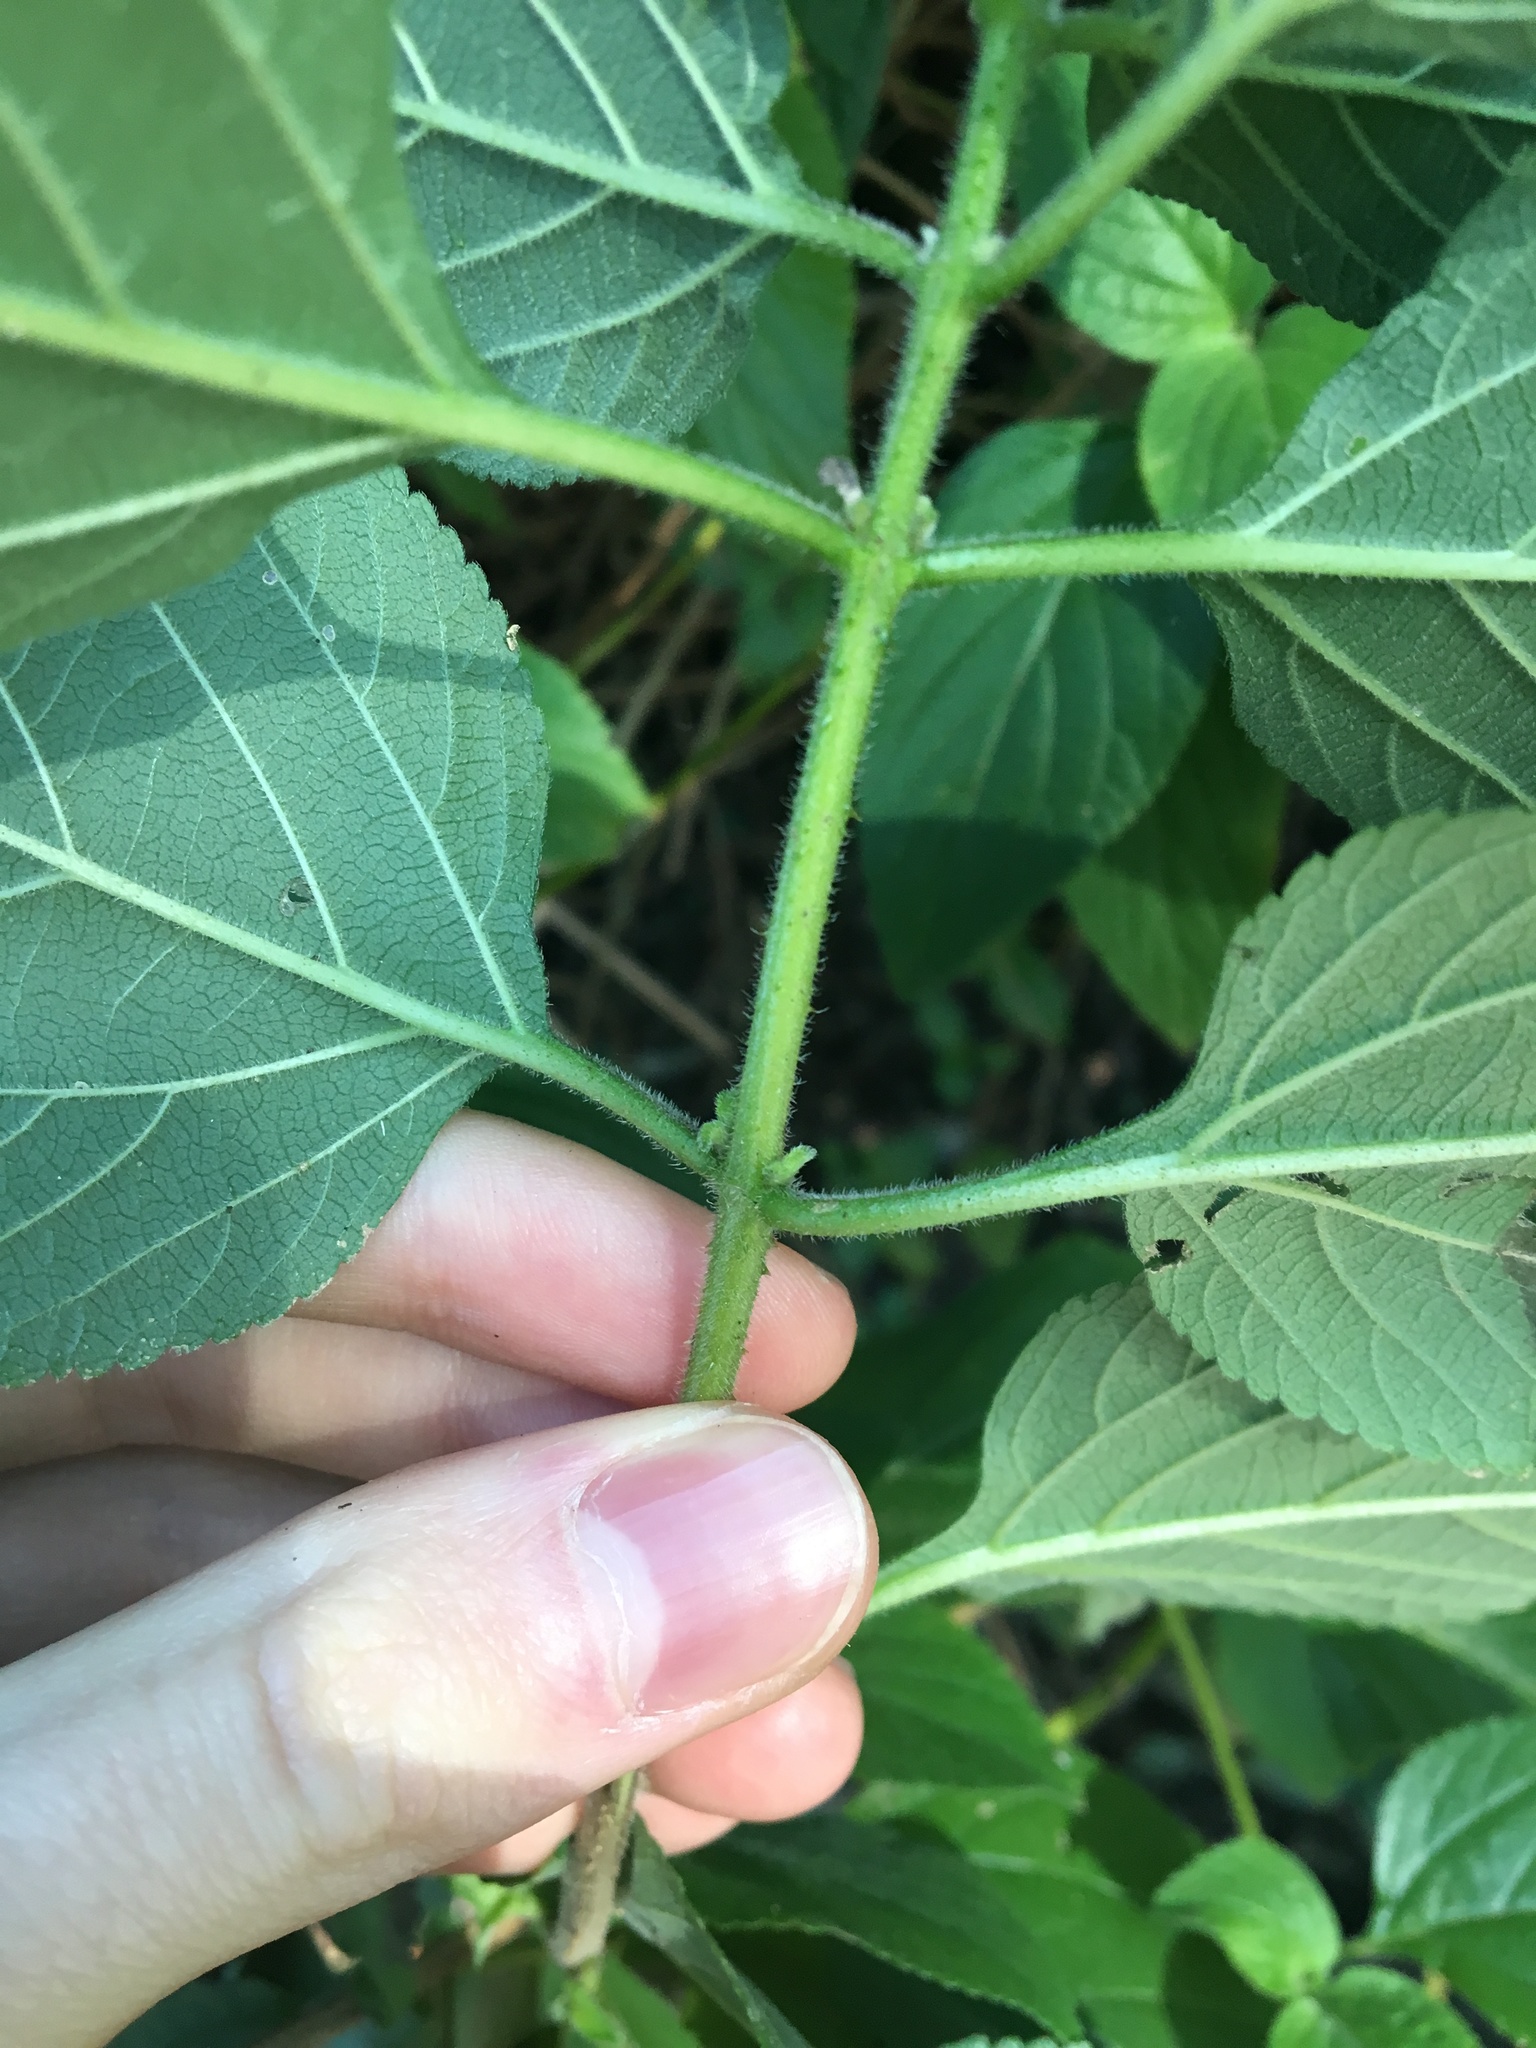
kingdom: Plantae
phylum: Tracheophyta
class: Magnoliopsida
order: Lamiales
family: Verbenaceae
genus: Lantana
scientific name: Lantana camara
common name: Lantana
